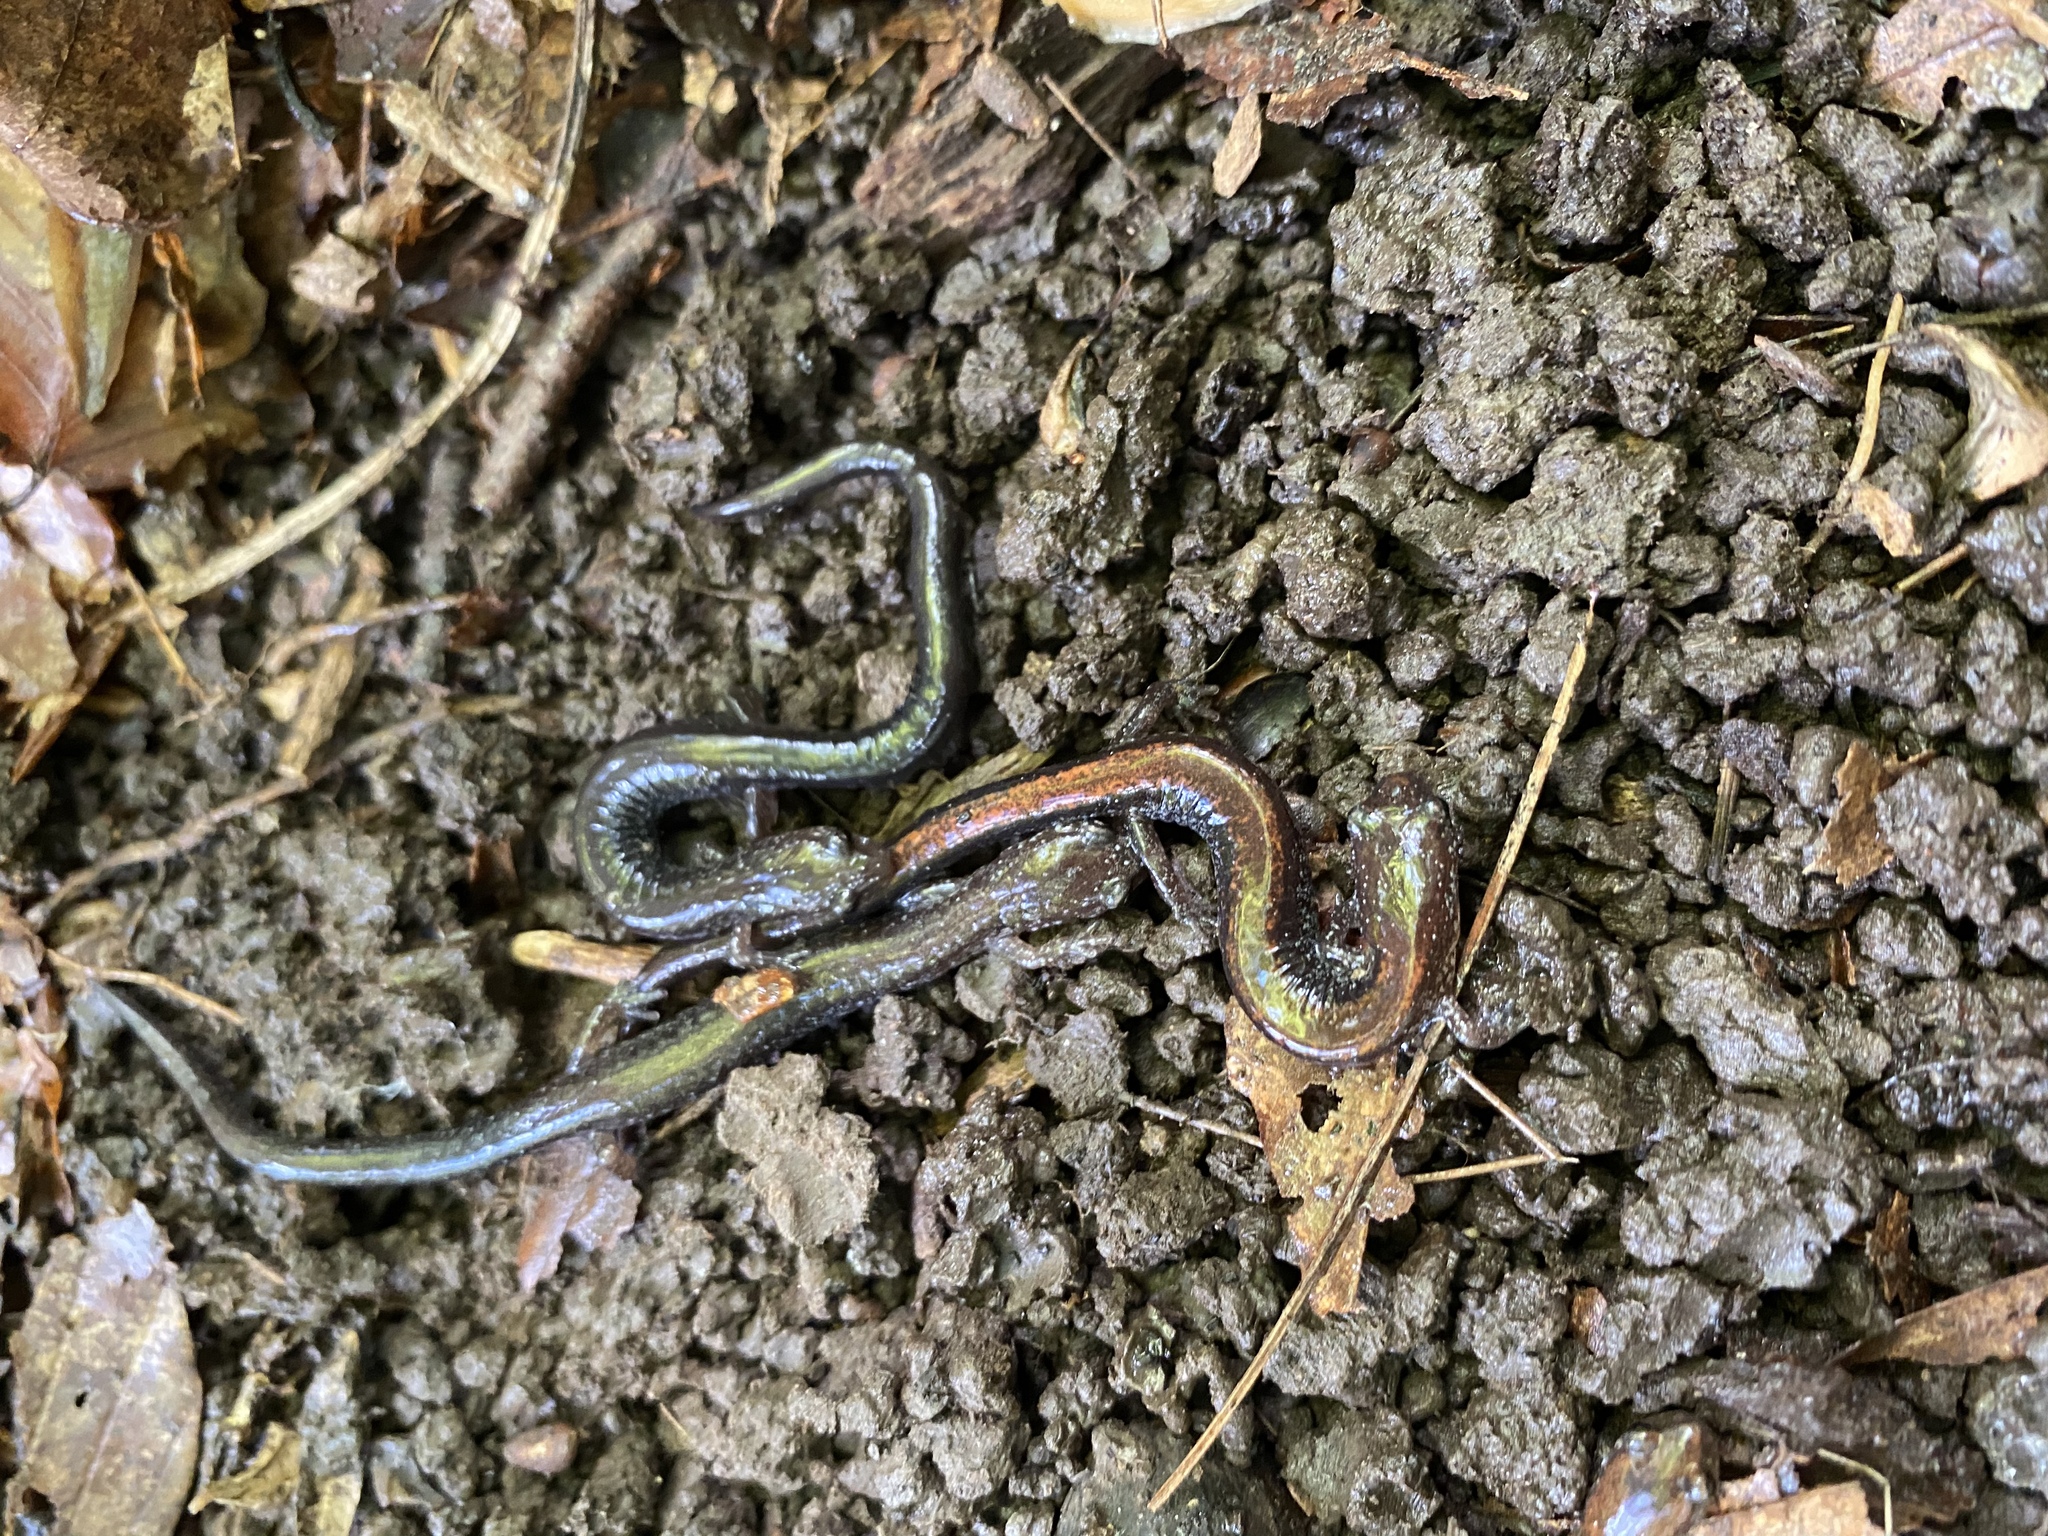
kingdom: Animalia
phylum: Chordata
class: Amphibia
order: Caudata
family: Plethodontidae
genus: Plethodon
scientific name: Plethodon cinereus
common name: Redback salamander
